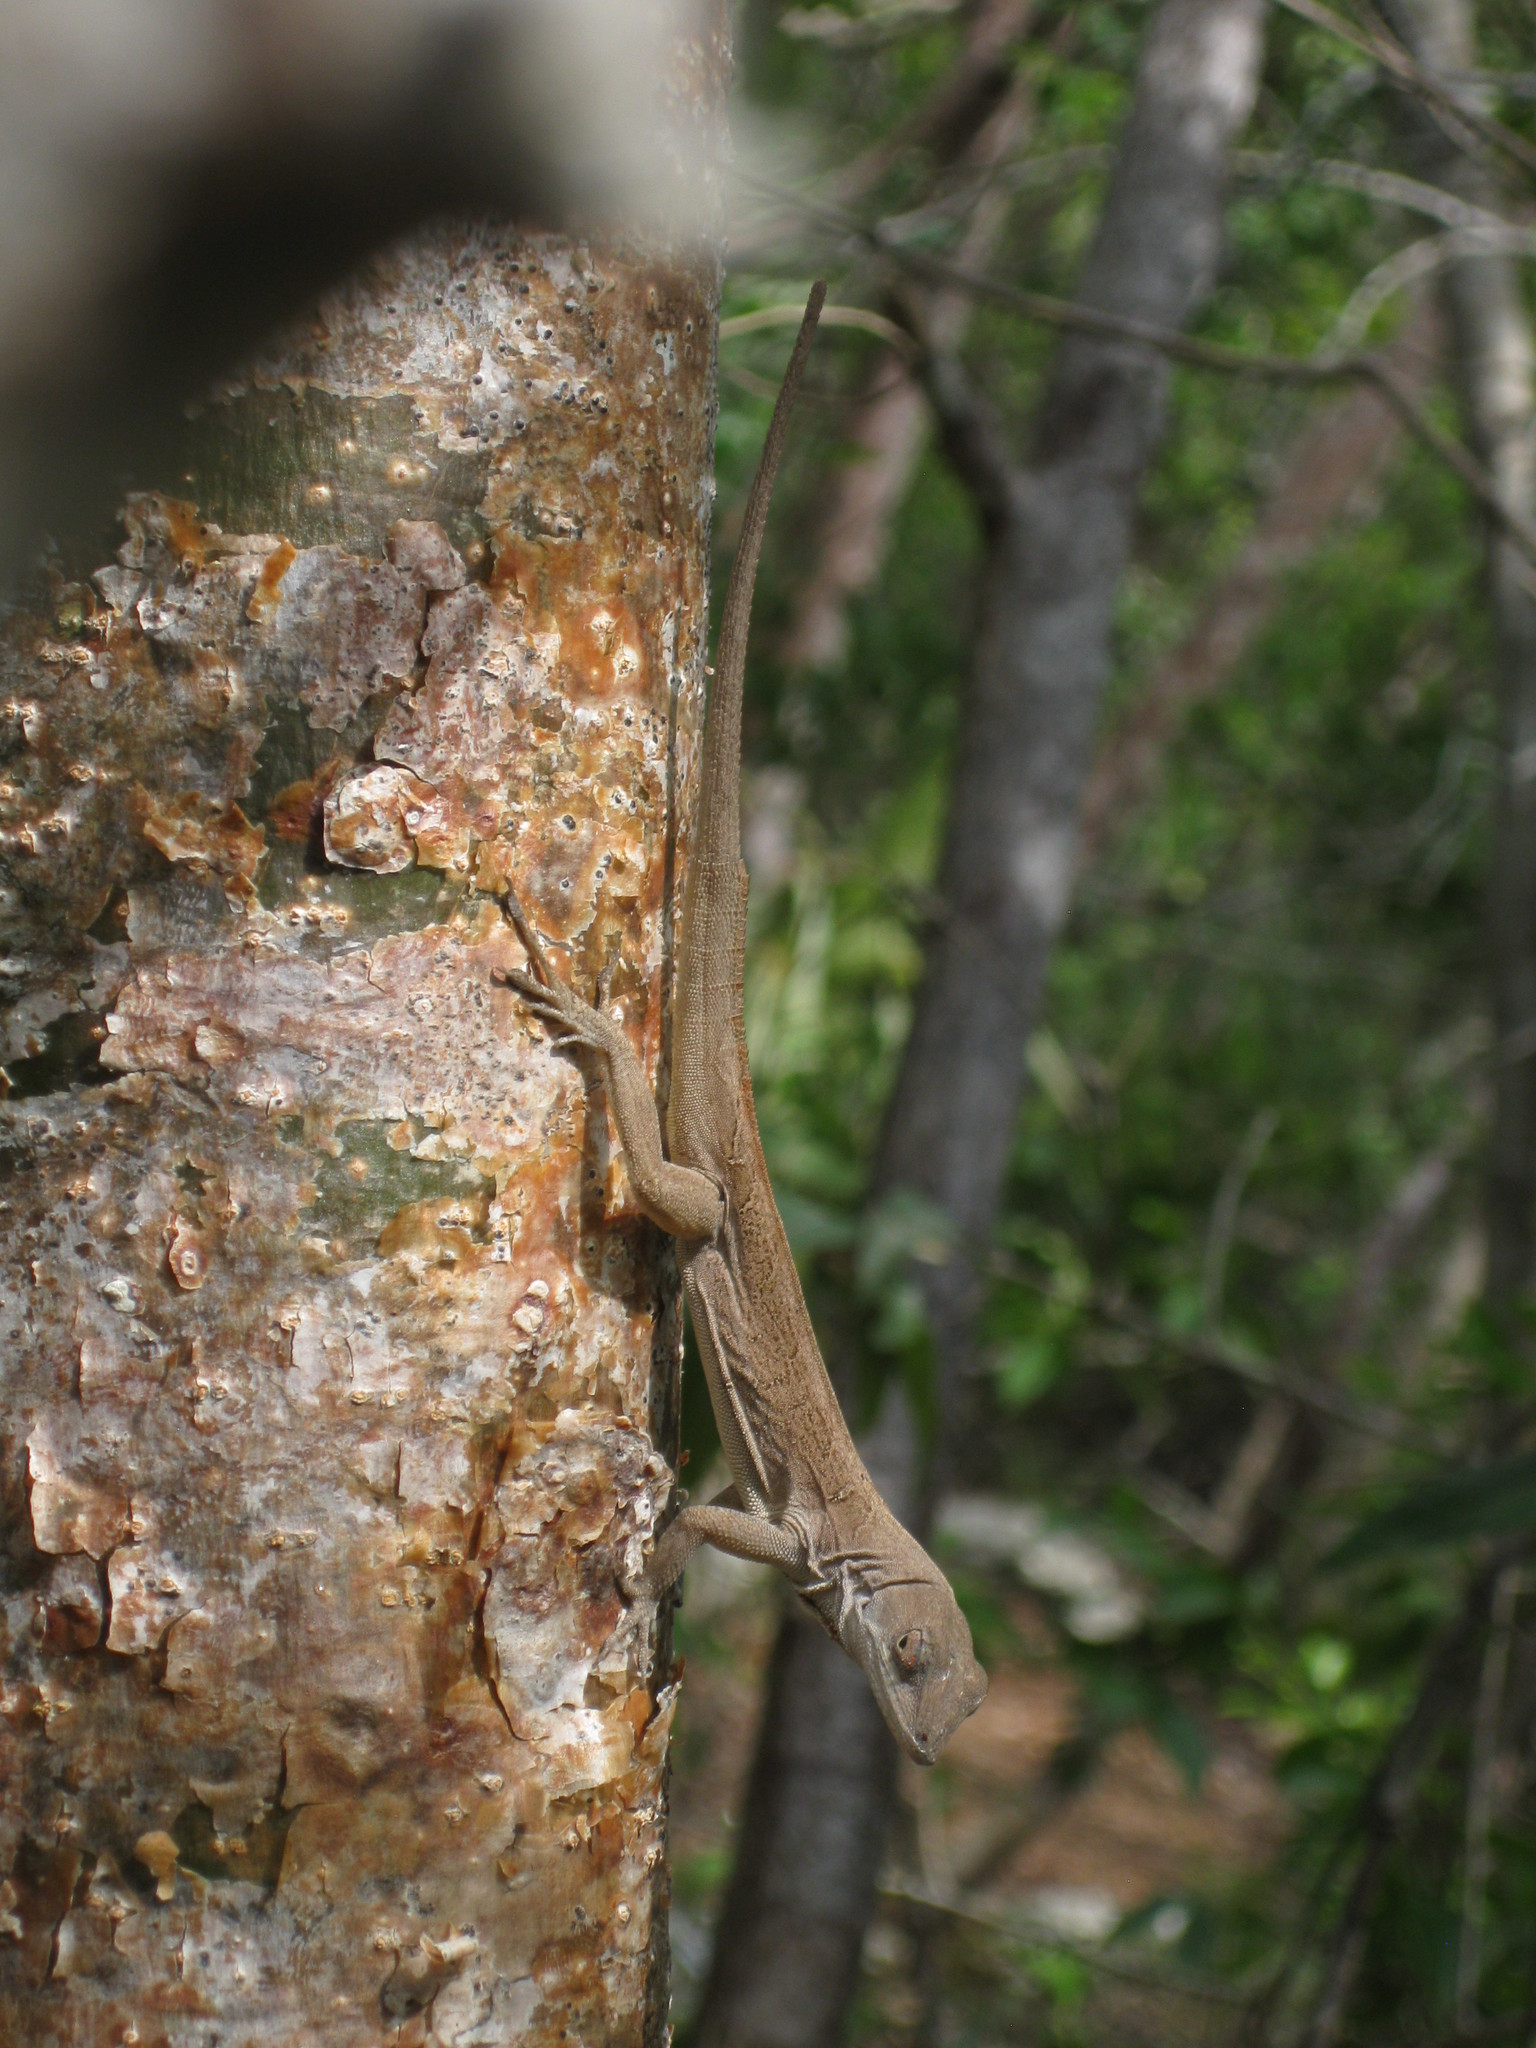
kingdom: Animalia
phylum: Chordata
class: Squamata
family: Dactyloidae
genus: Anolis
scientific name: Anolis sagrei
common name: Brown anole
